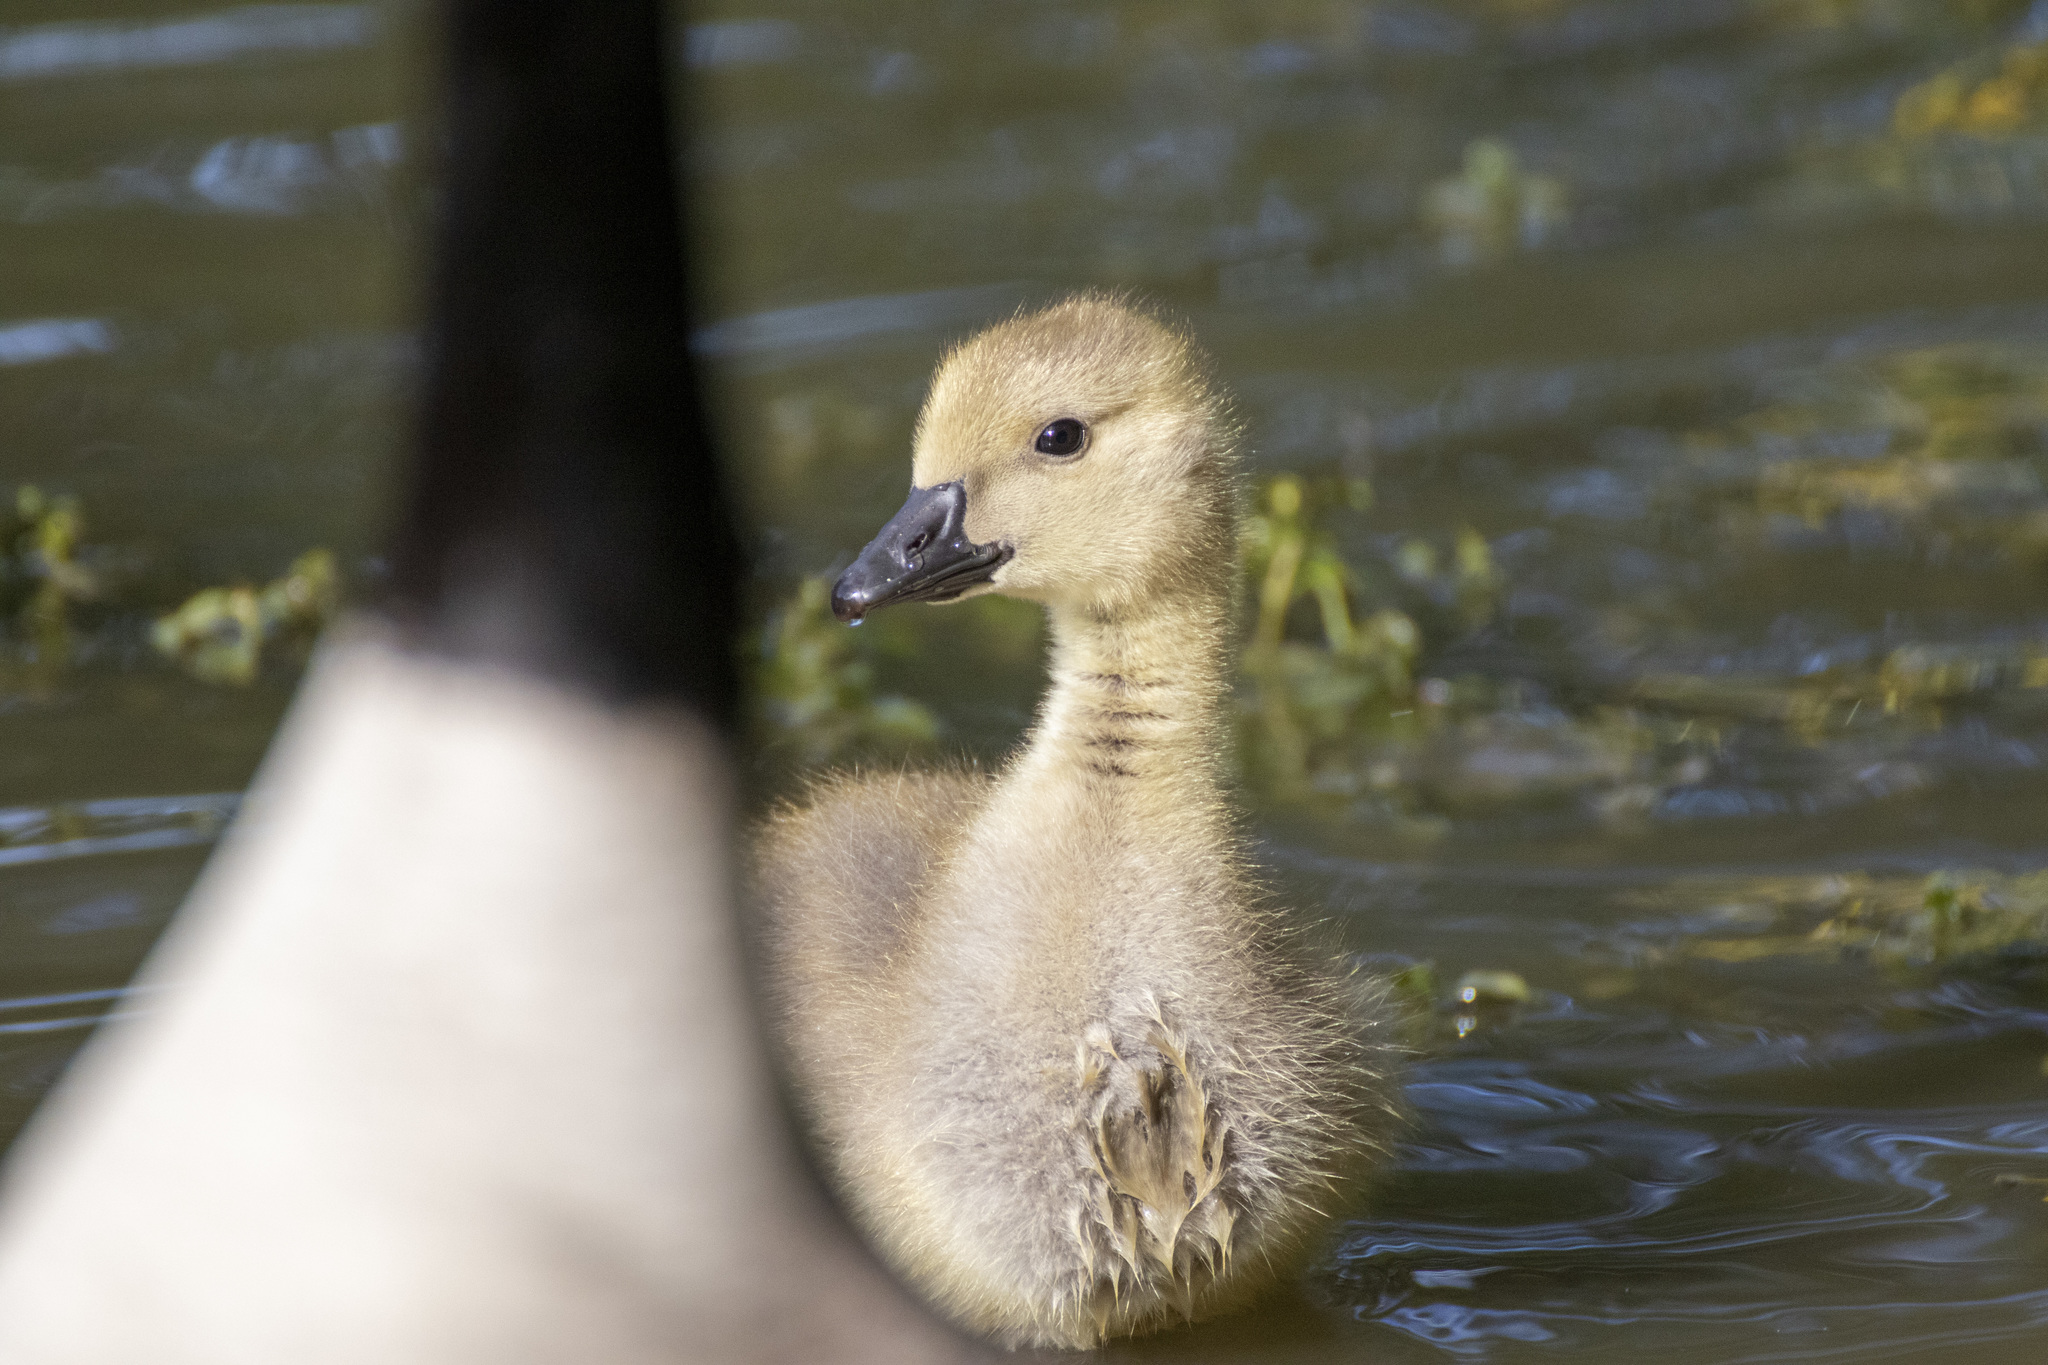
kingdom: Animalia
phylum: Chordata
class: Aves
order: Anseriformes
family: Anatidae
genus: Branta
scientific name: Branta canadensis
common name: Canada goose
